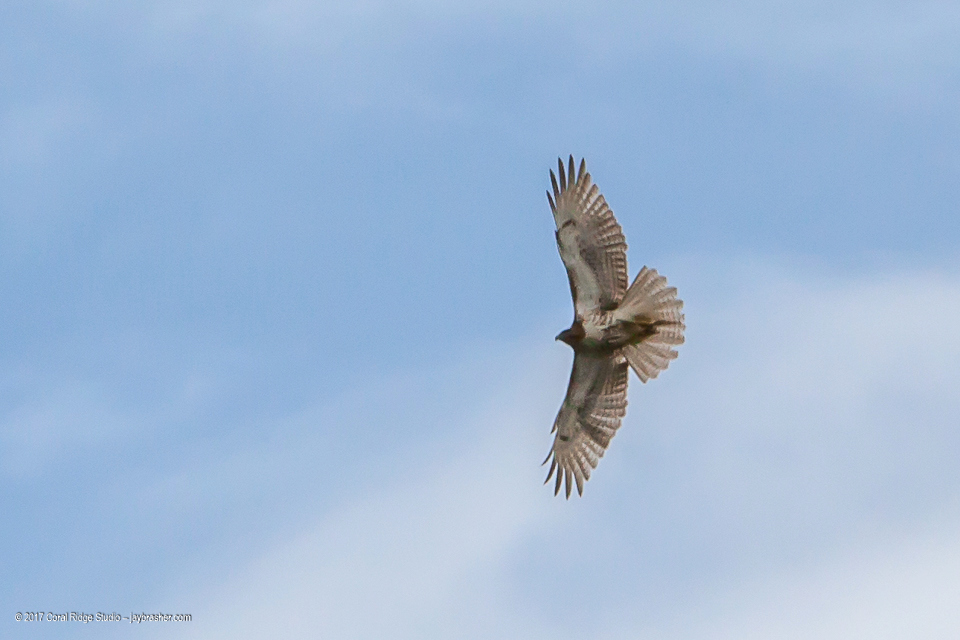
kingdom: Animalia
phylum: Chordata
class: Aves
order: Accipitriformes
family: Accipitridae
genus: Buteo
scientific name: Buteo jamaicensis
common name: Red-tailed hawk
